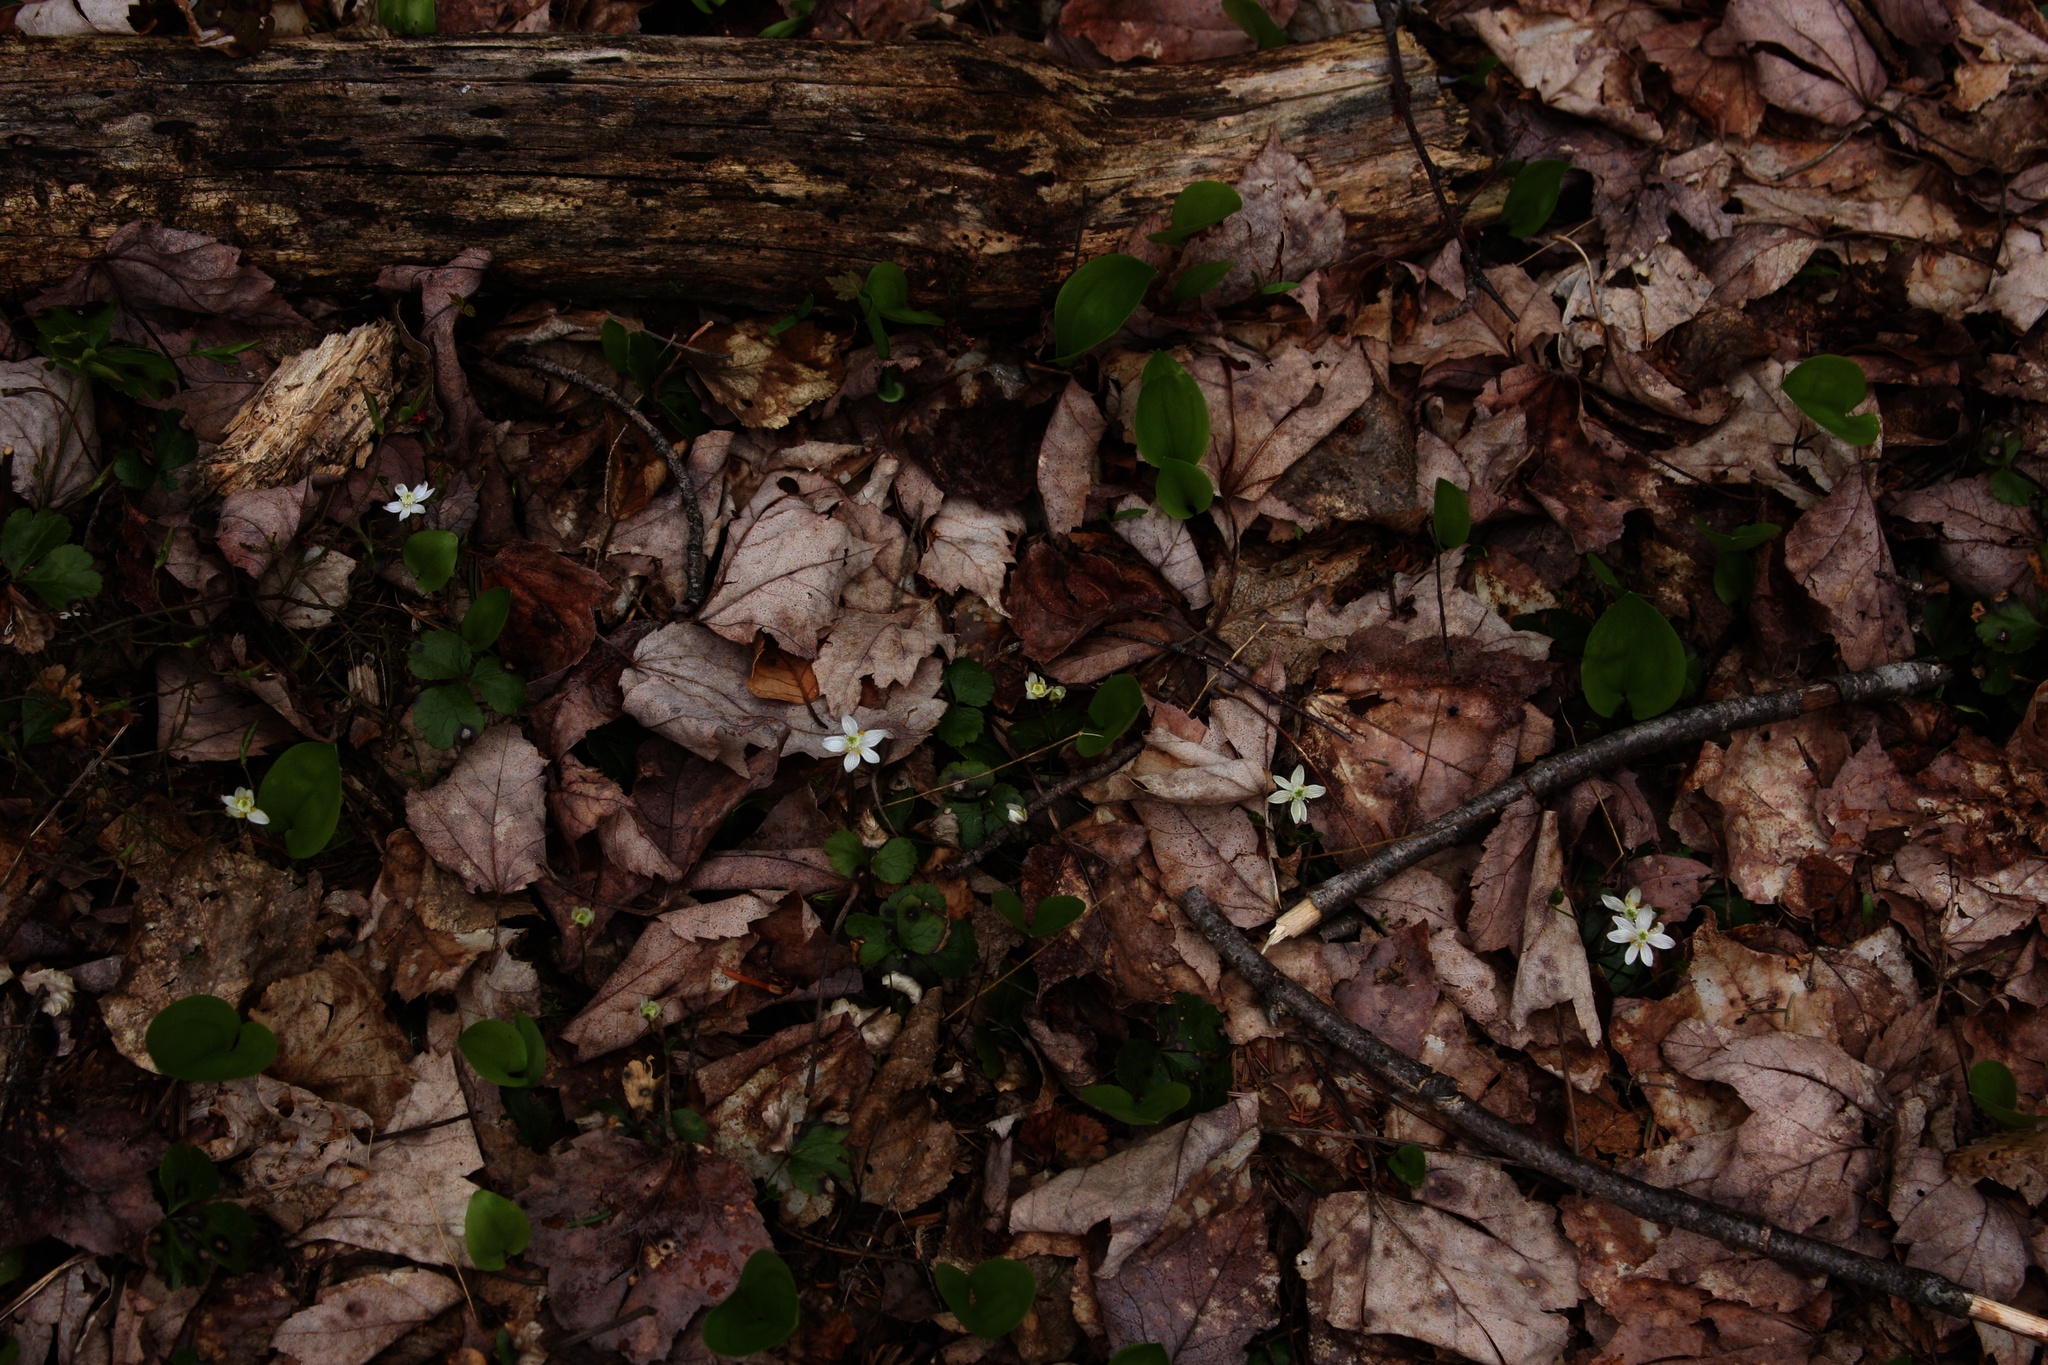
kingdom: Plantae
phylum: Tracheophyta
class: Magnoliopsida
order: Ranunculales
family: Ranunculaceae
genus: Coptis
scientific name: Coptis trifolia
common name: Canker-root
